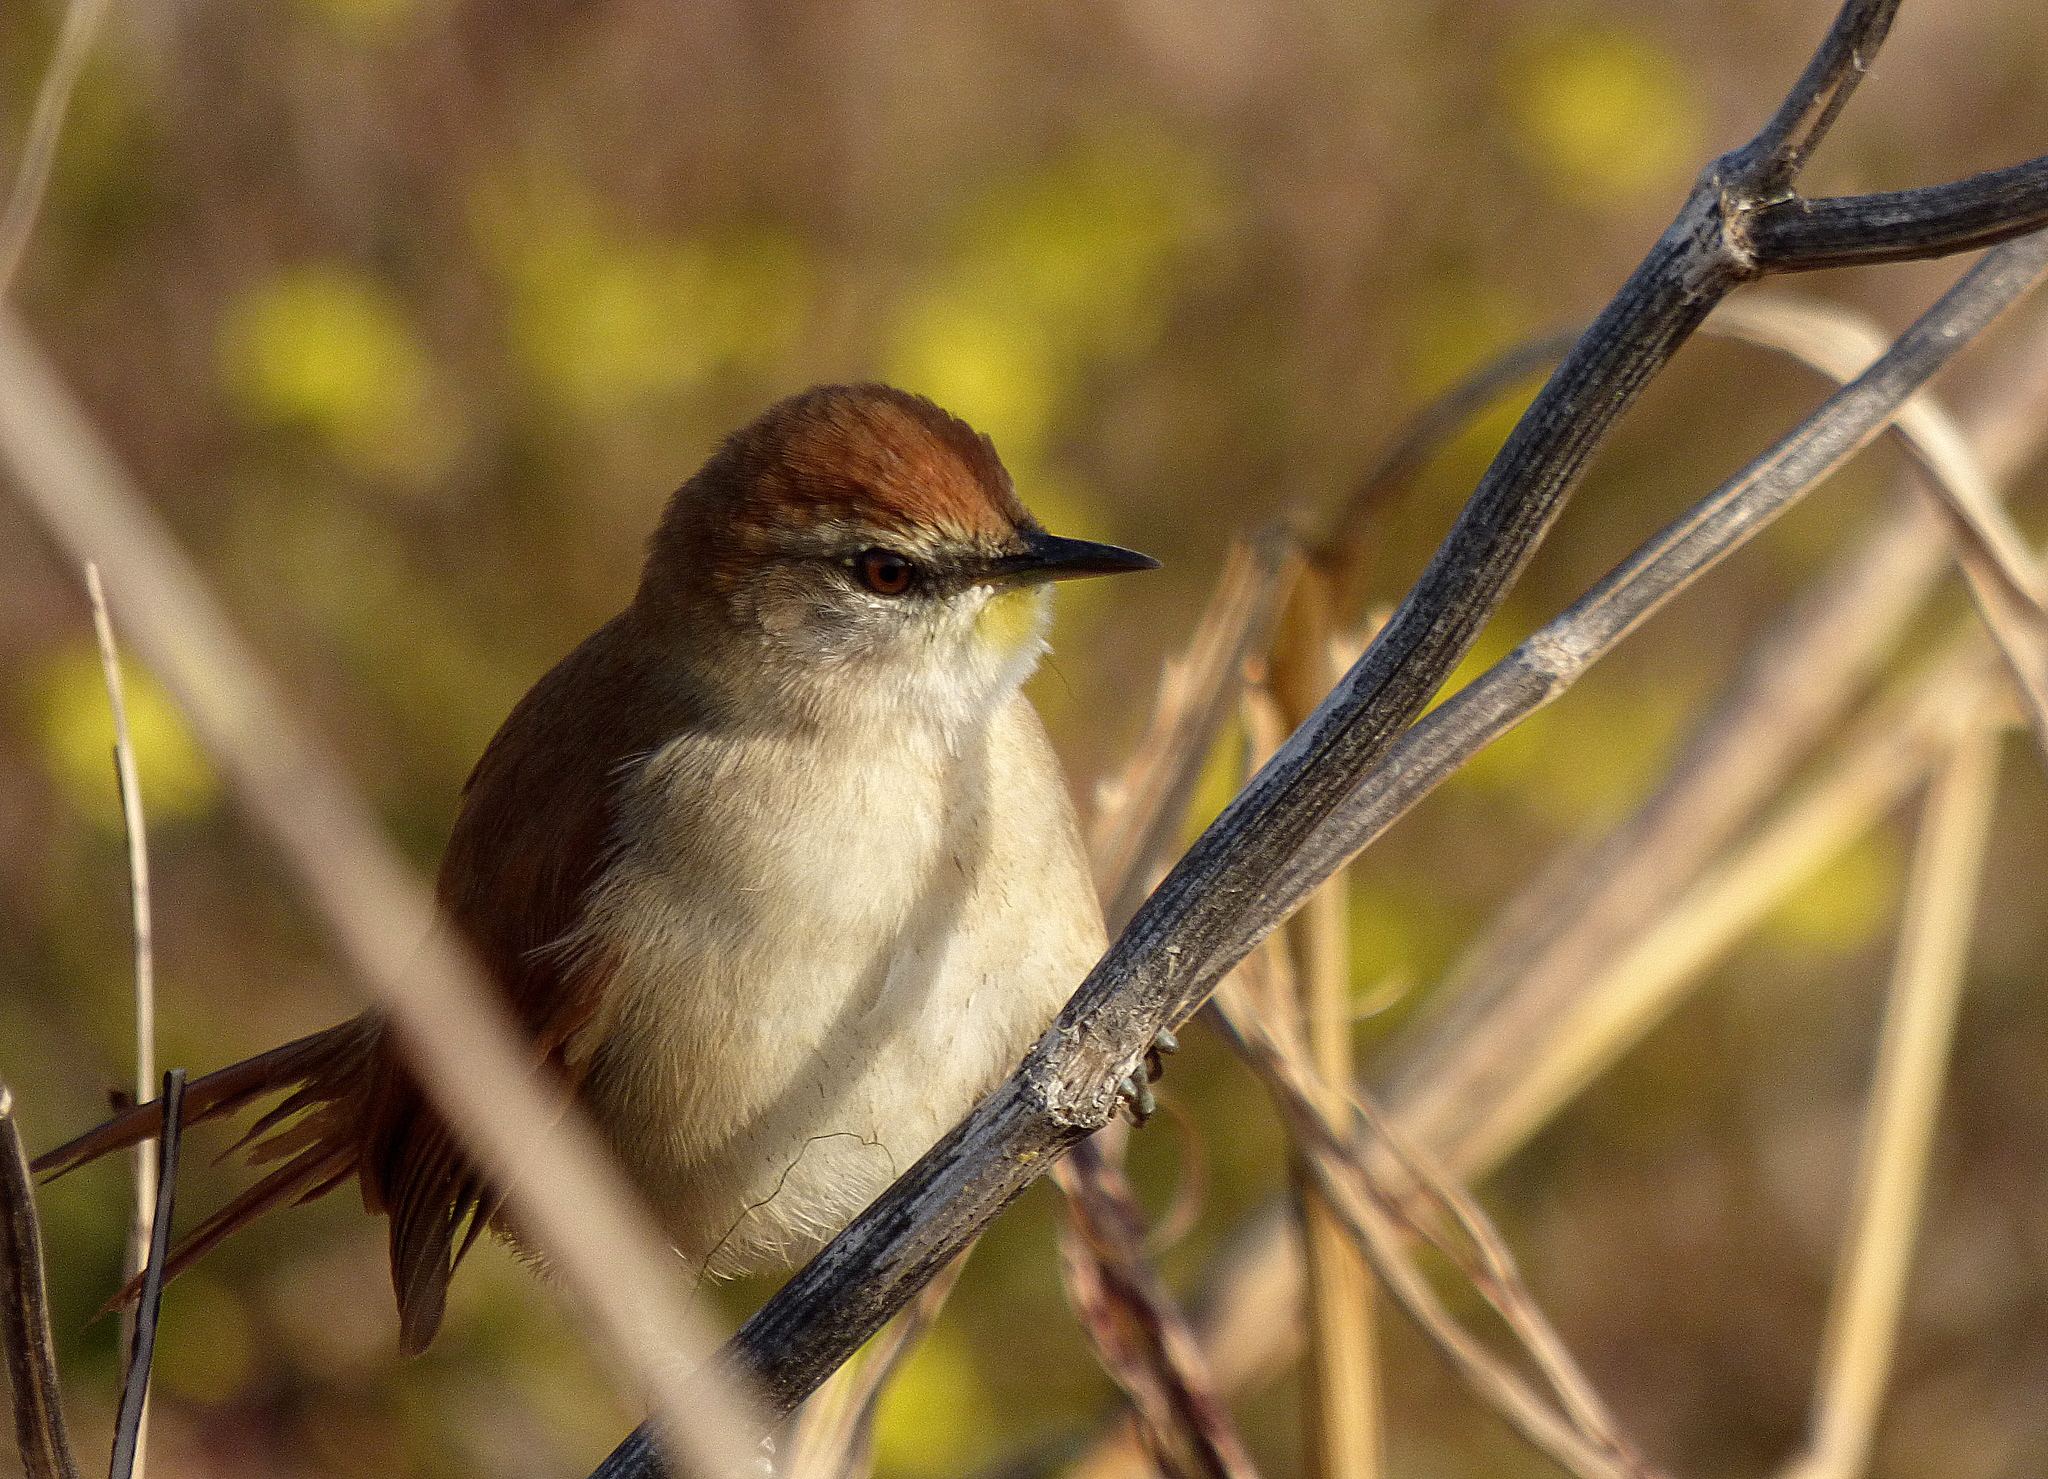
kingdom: Animalia
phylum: Chordata
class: Aves
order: Passeriformes
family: Furnariidae
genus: Certhiaxis
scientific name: Certhiaxis cinnamomeus
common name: Yellow-chinned spinetail
